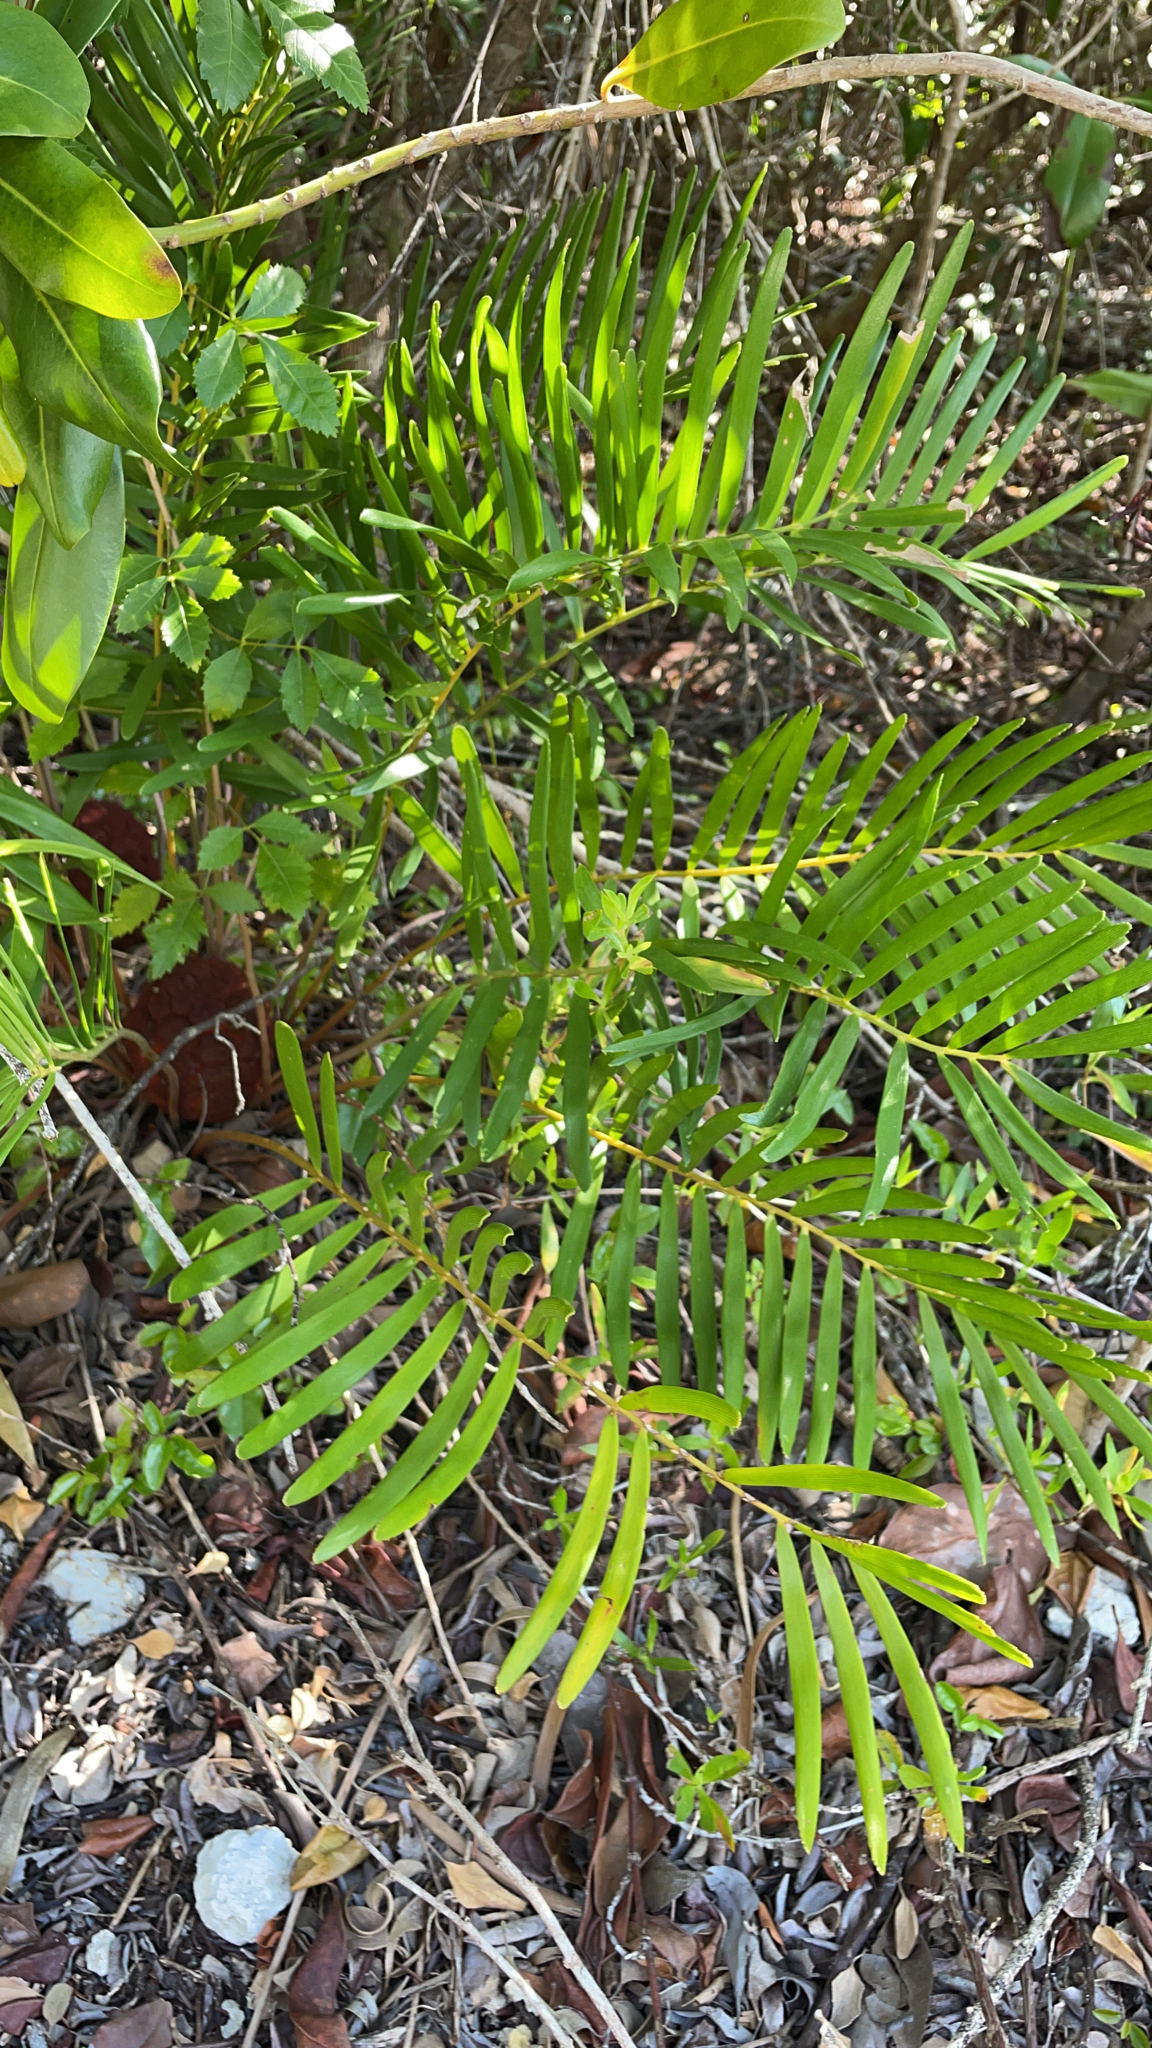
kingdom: Plantae
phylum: Tracheophyta
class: Cycadopsida
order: Cycadales
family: Zamiaceae
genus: Zamia
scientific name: Zamia integrifolia
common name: Florida arrowroot
